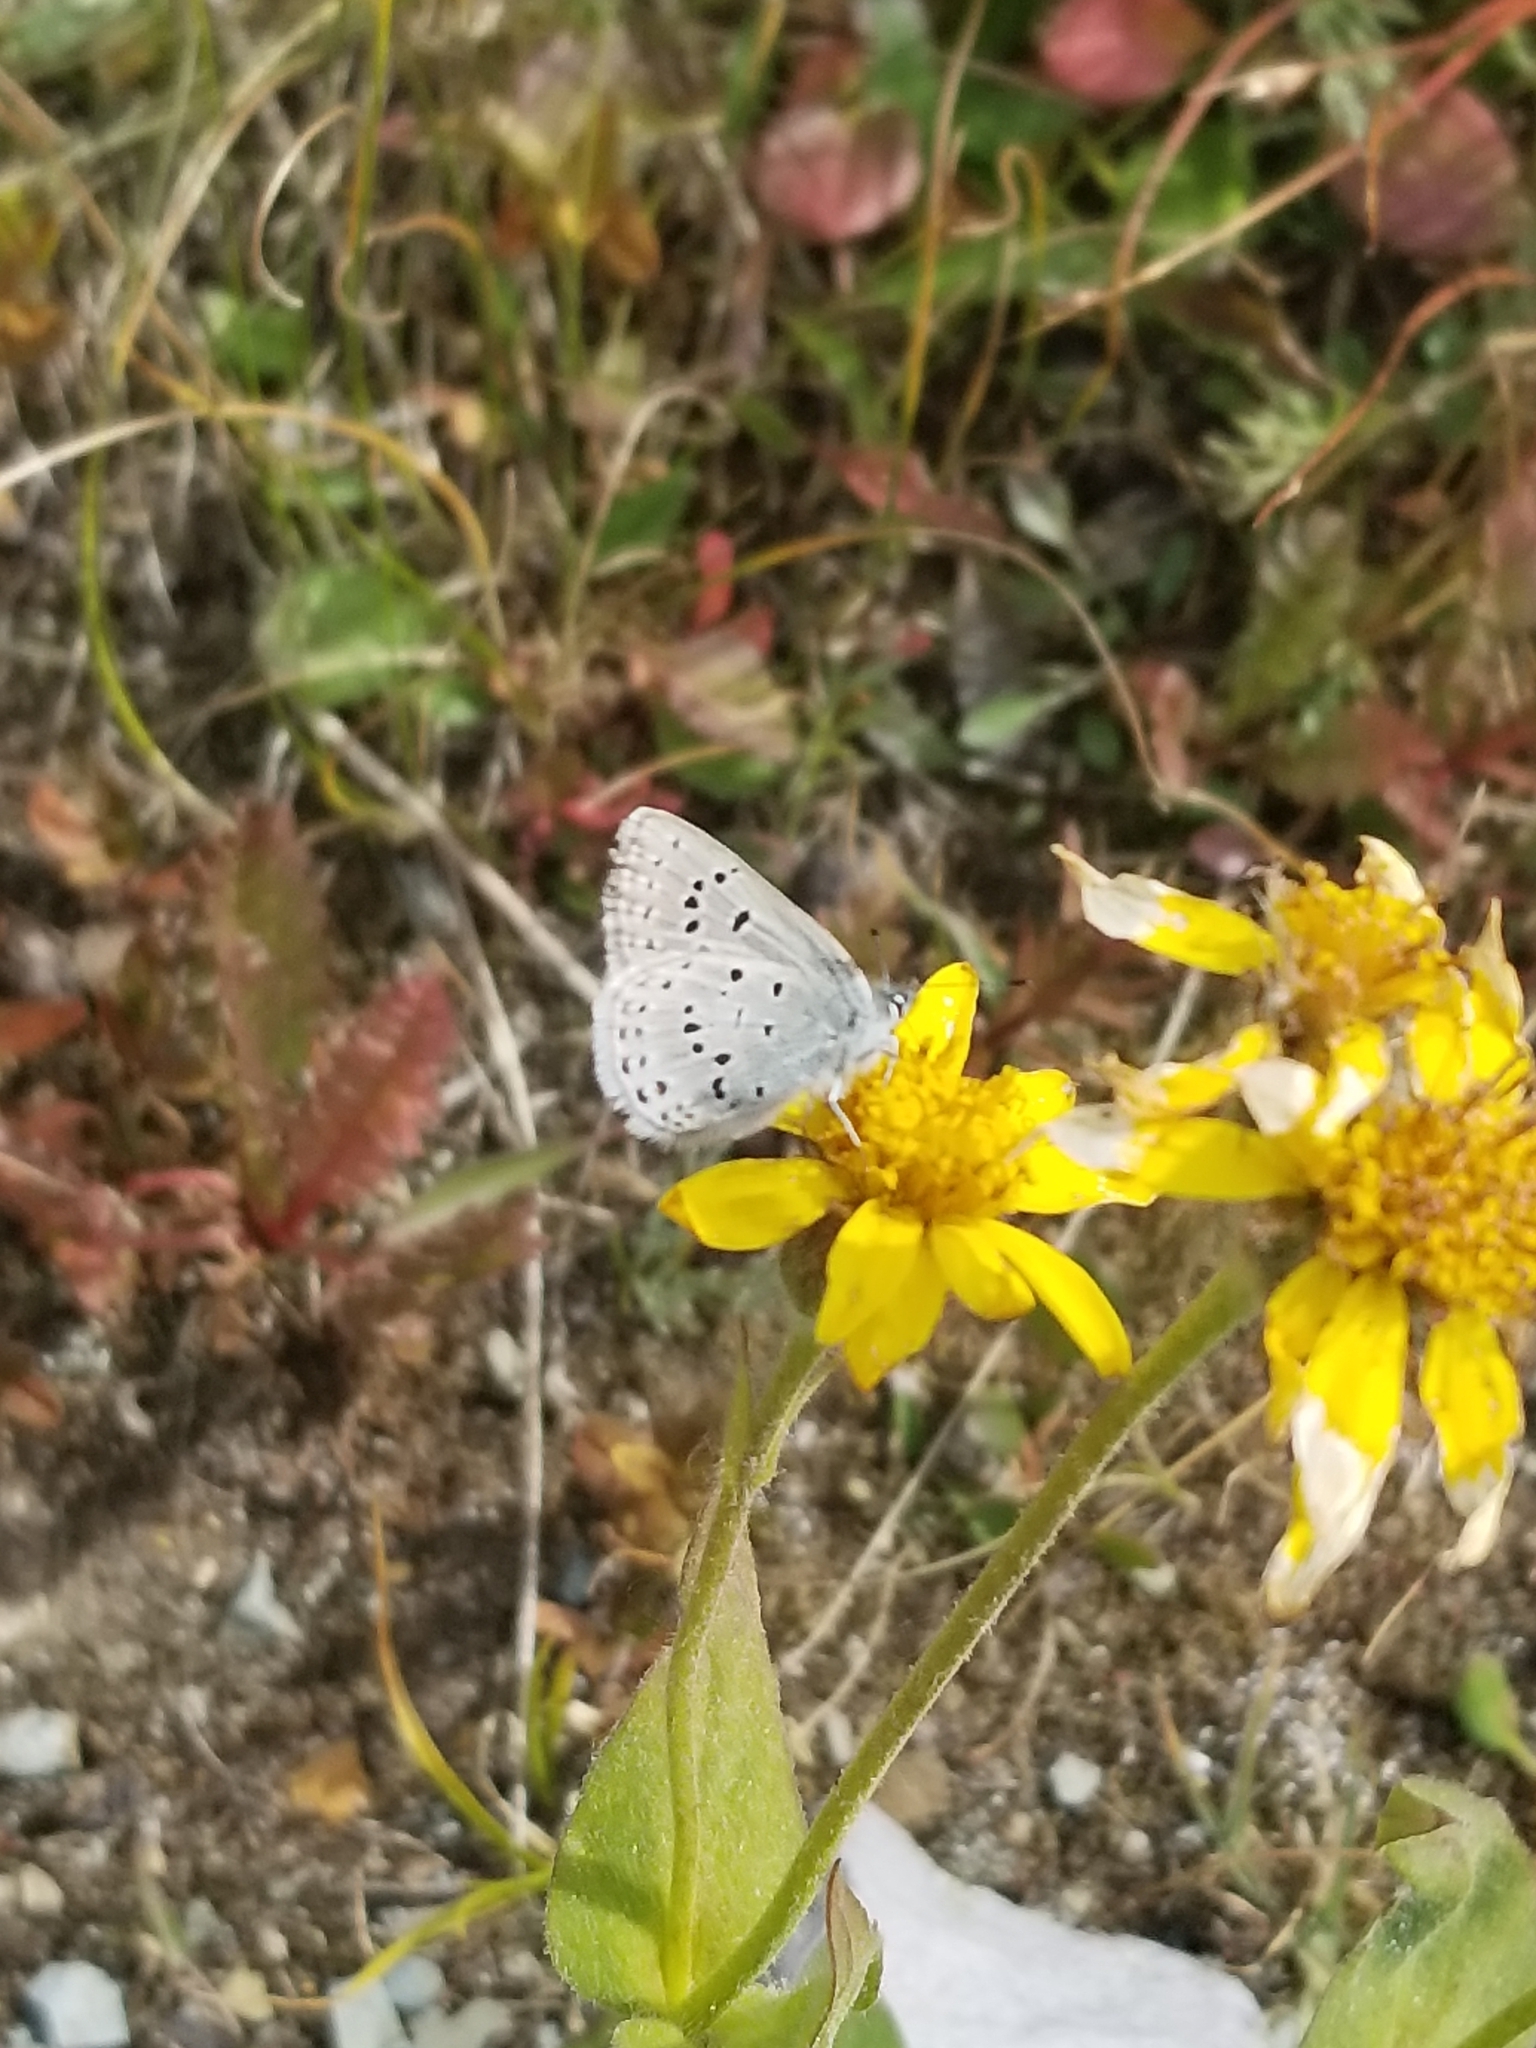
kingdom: Animalia
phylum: Arthropoda
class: Insecta
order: Lepidoptera
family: Lycaenidae
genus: Icaricia
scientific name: Icaricia saepiolus
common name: Greenish blue
